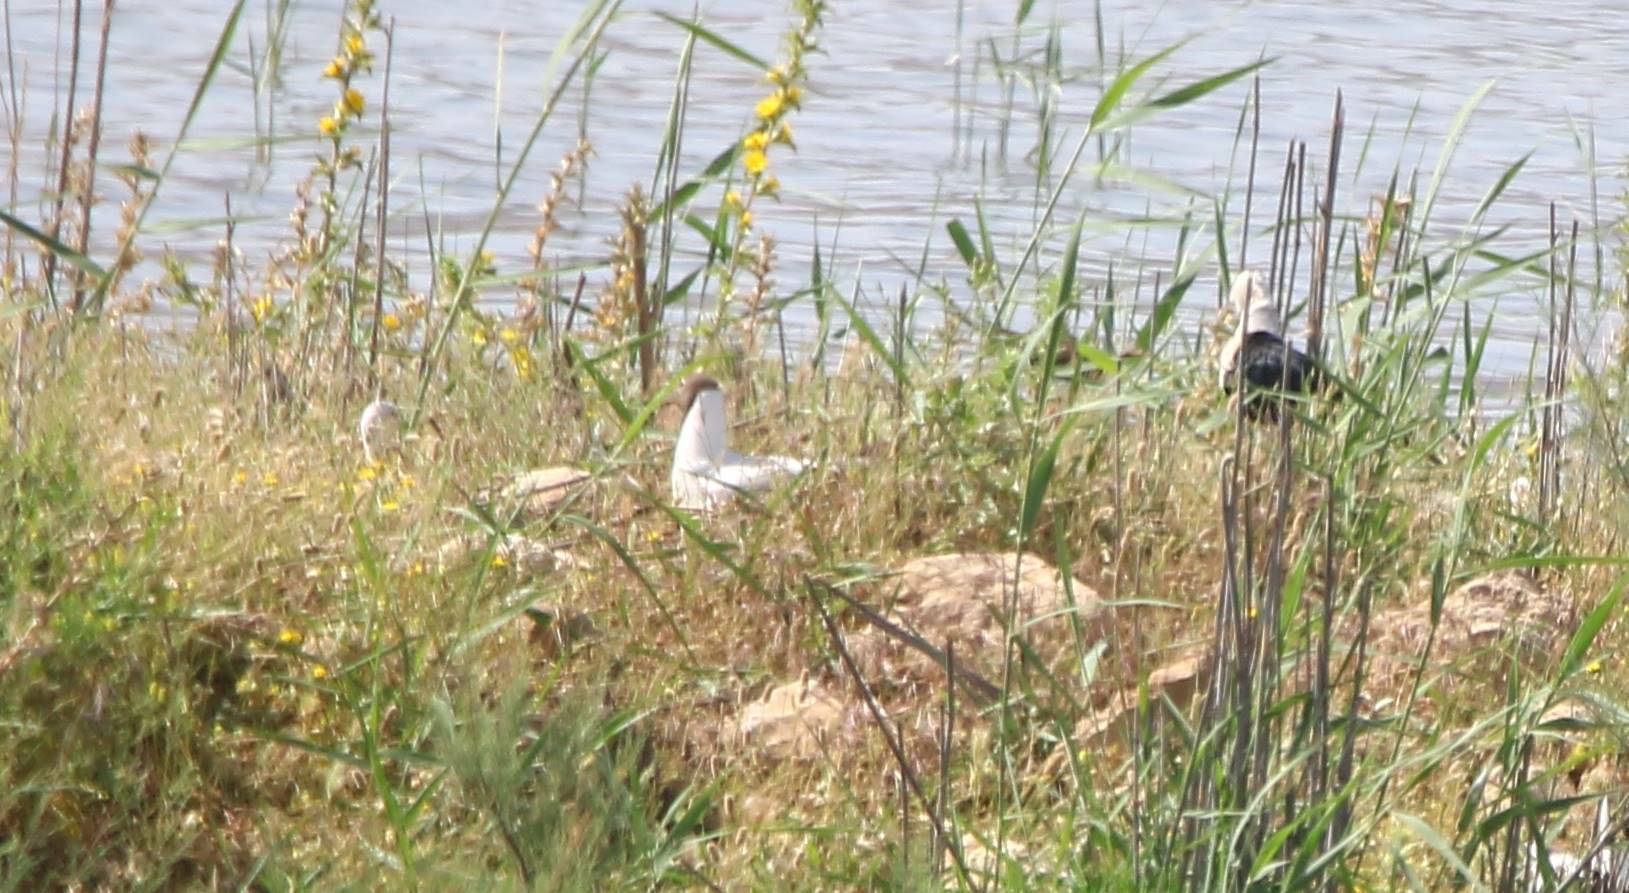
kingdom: Animalia
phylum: Chordata
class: Aves
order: Charadriiformes
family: Laridae
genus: Chroicocephalus
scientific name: Chroicocephalus ridibundus
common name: Black-headed gull
